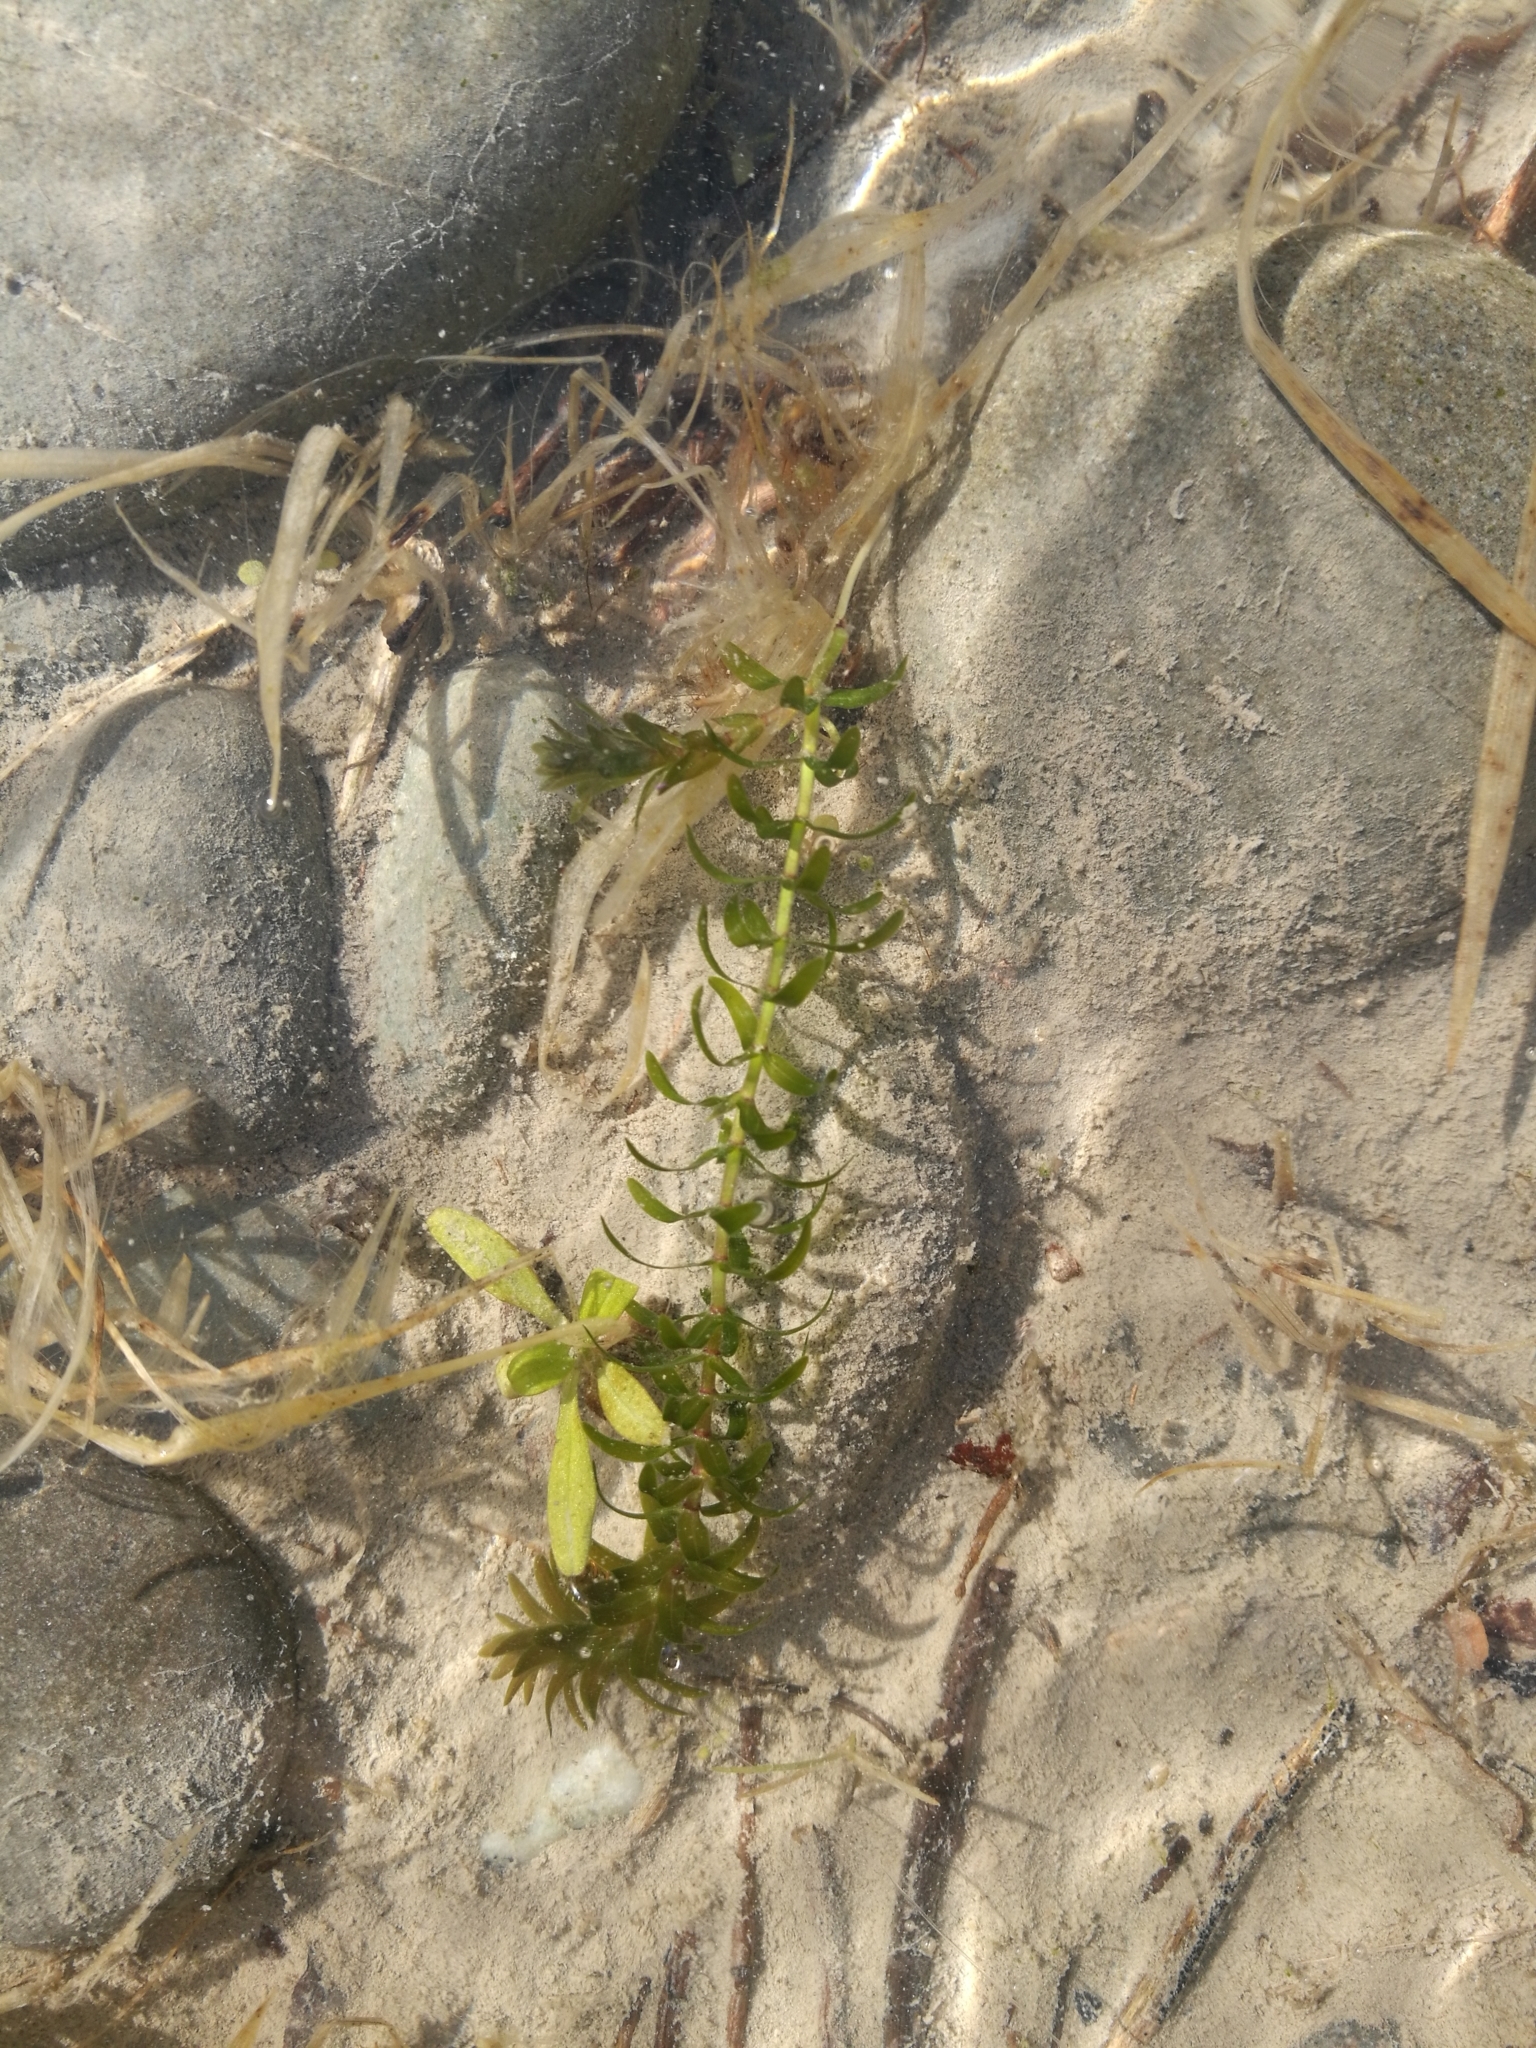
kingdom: Plantae
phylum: Tracheophyta
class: Liliopsida
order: Alismatales
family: Hydrocharitaceae
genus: Elodea
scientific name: Elodea canadensis
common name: Canadian waterweed
